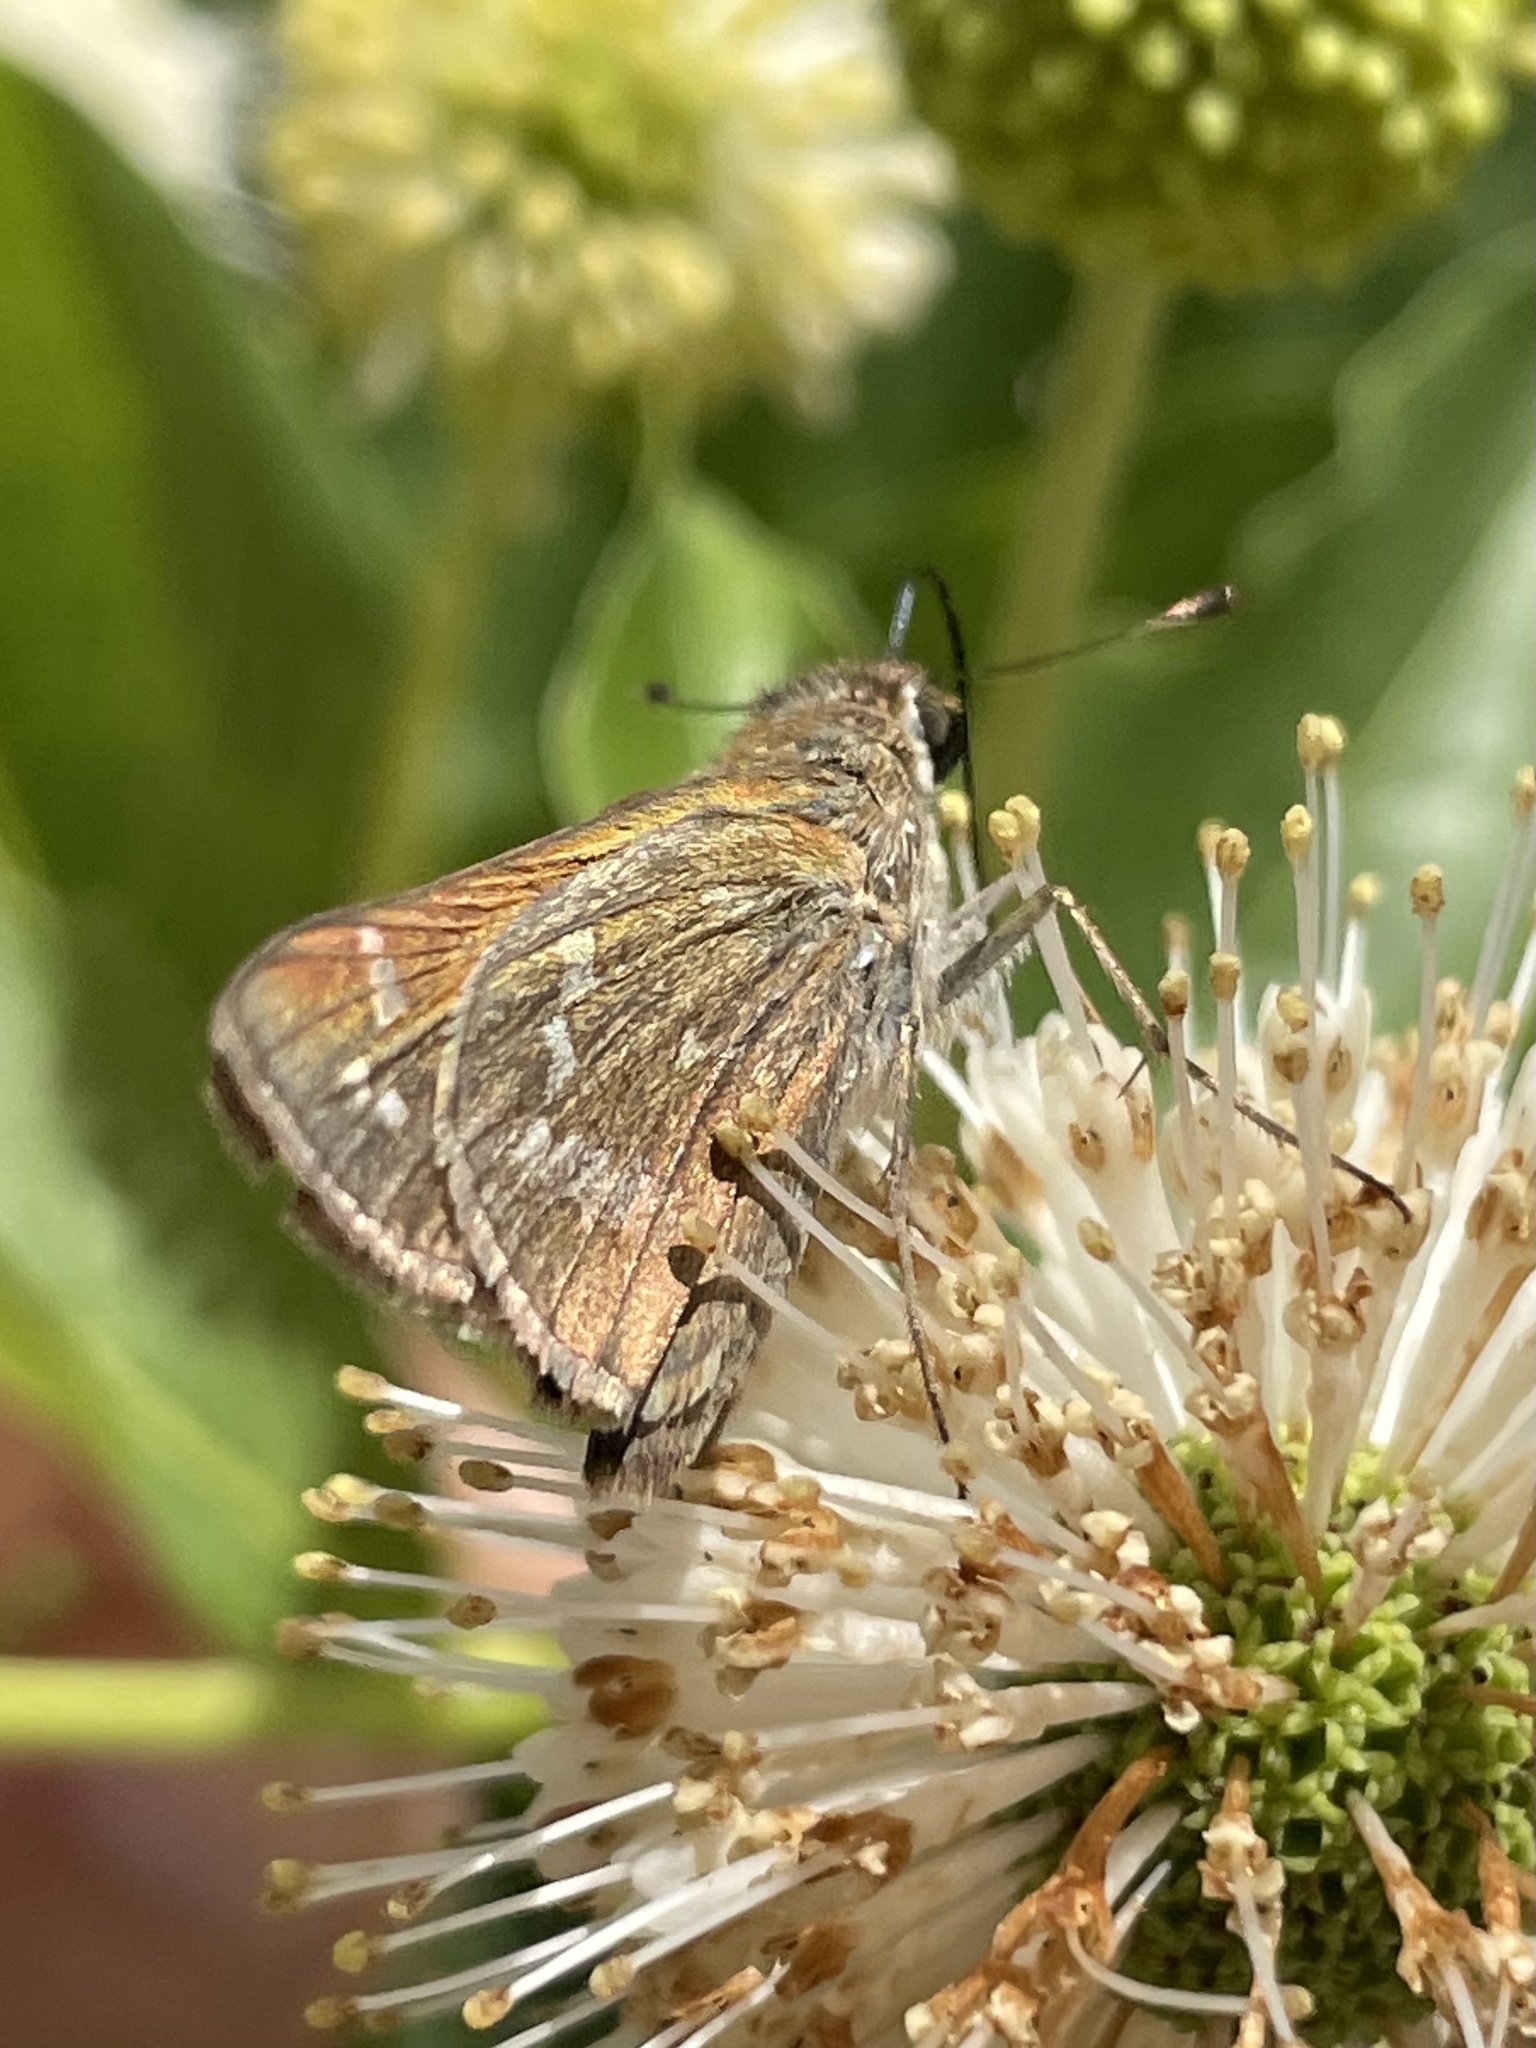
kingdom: Animalia
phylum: Arthropoda
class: Insecta
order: Lepidoptera
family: Hesperiidae
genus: Atalopedes
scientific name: Atalopedes
